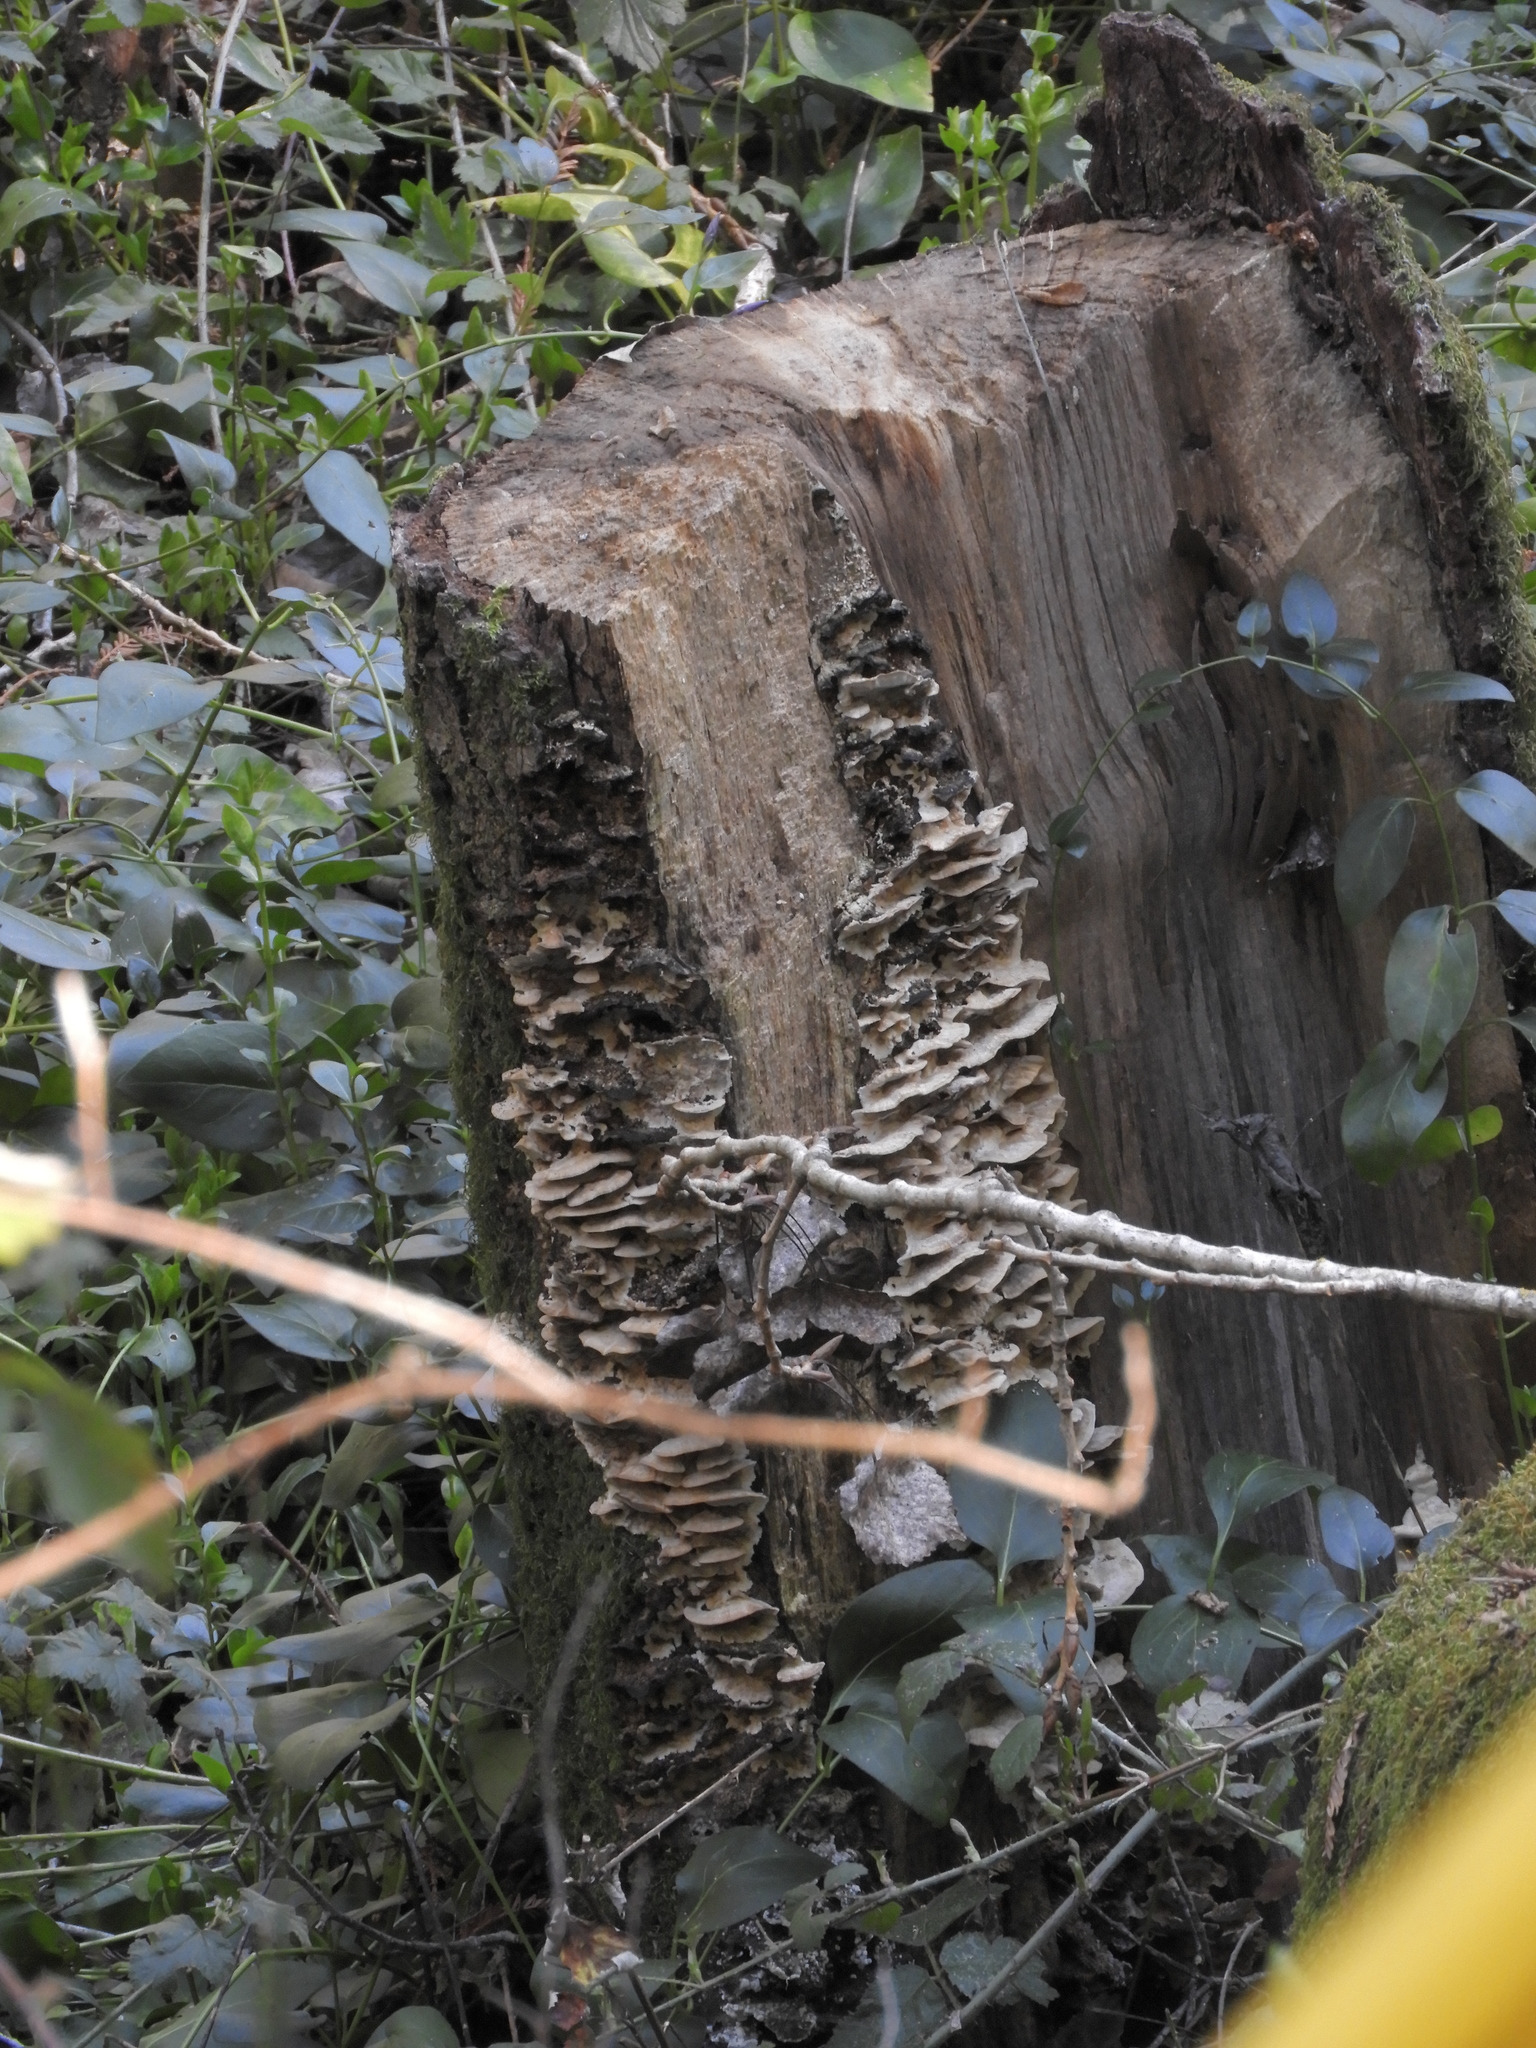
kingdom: Fungi
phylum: Basidiomycota
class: Agaricomycetes
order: Polyporales
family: Phanerochaetaceae
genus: Bjerkandera
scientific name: Bjerkandera adusta
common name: Smoky bracket
